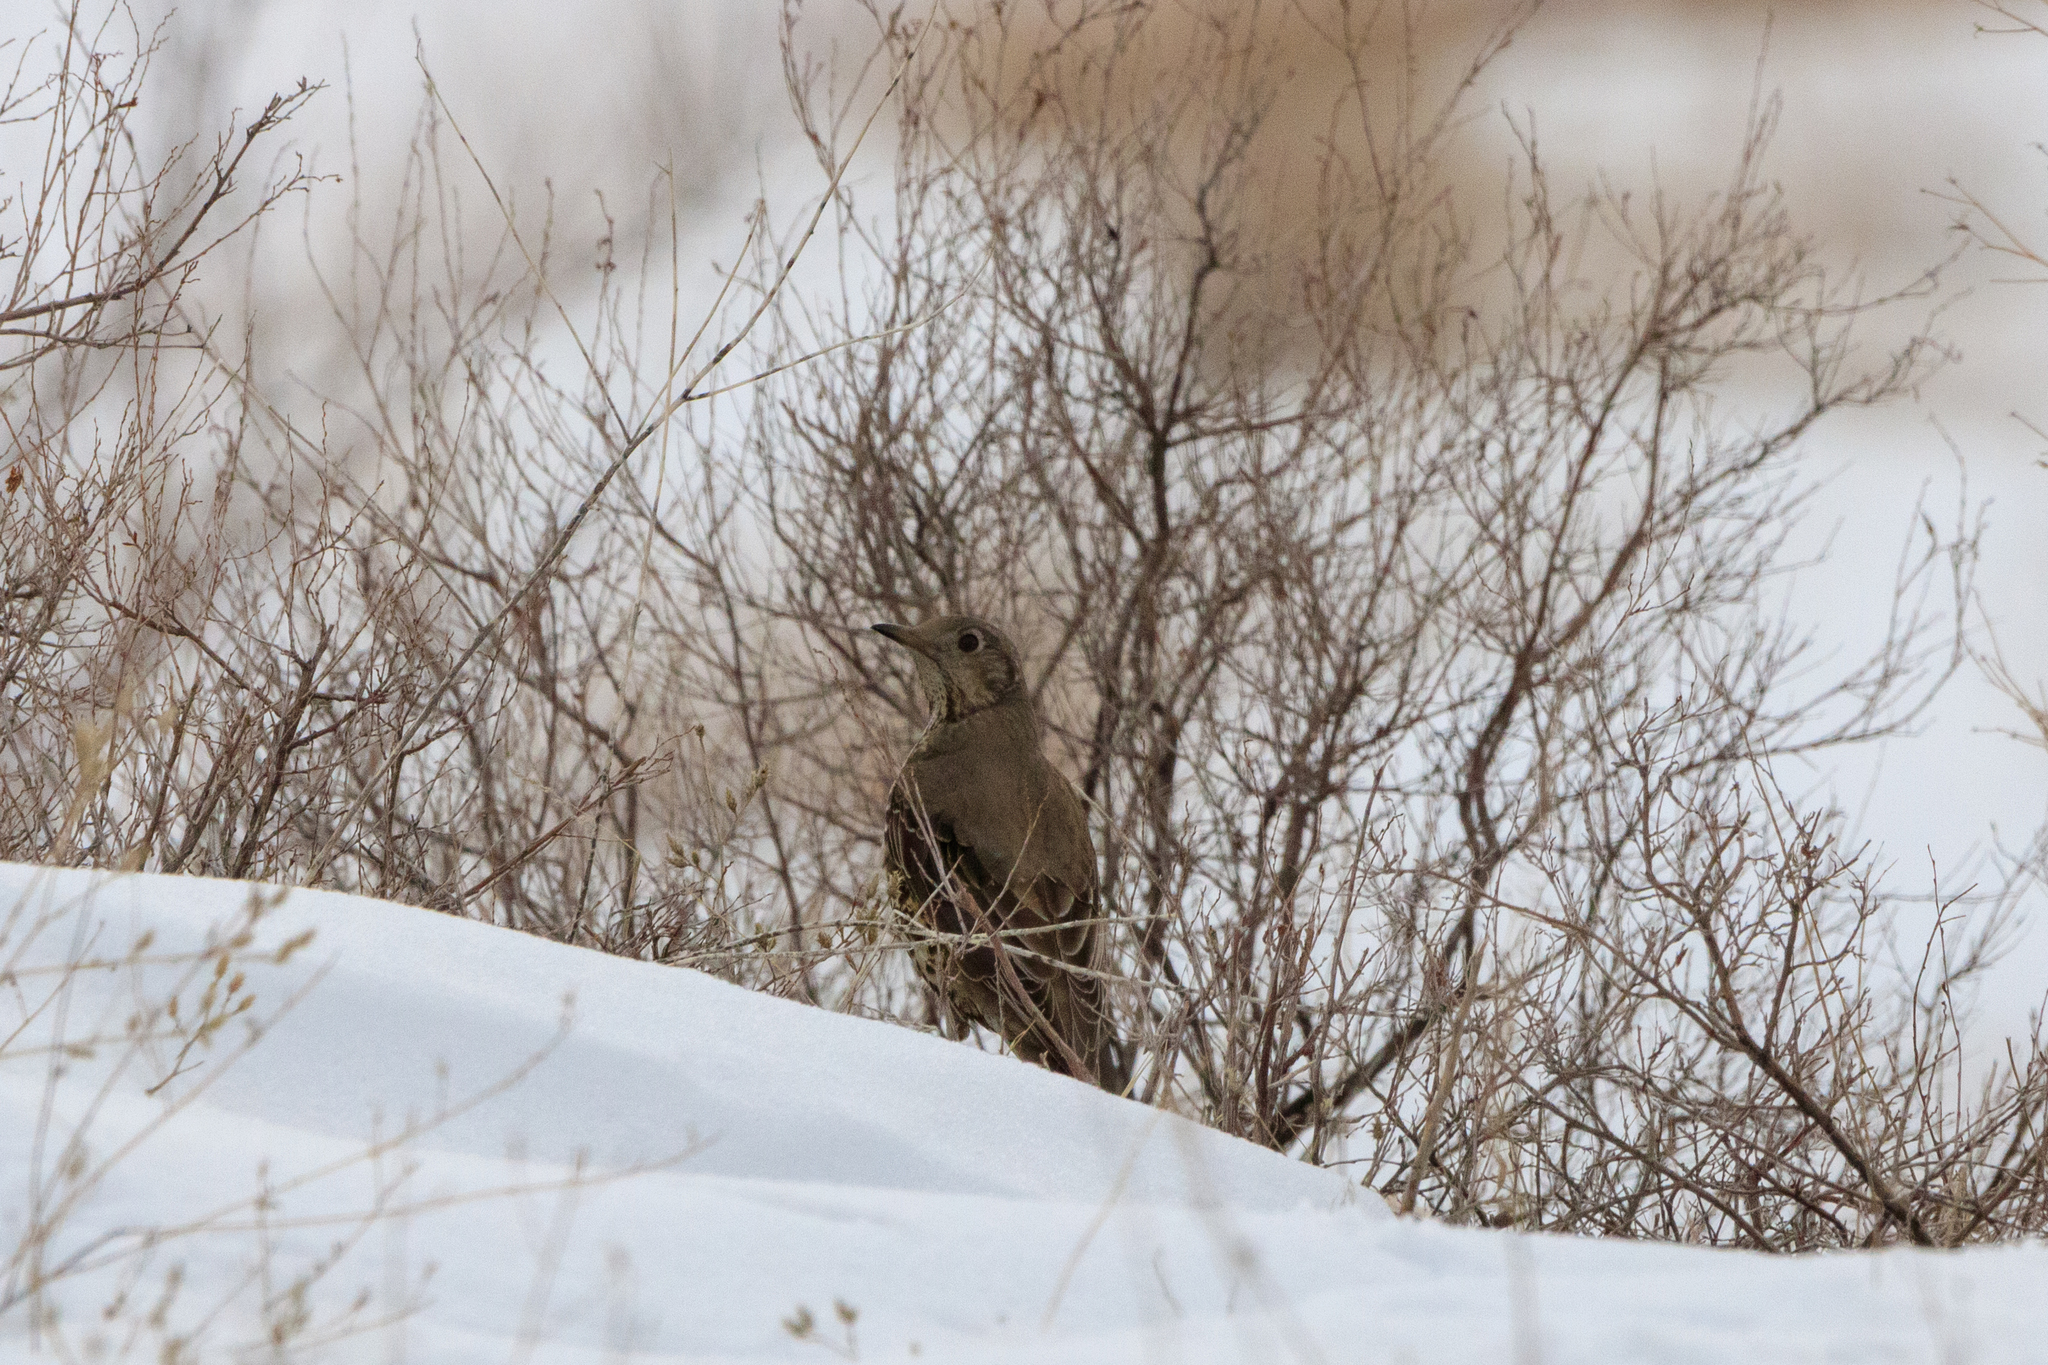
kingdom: Animalia
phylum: Chordata
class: Aves
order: Passeriformes
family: Turdidae
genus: Turdus
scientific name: Turdus viscivorus
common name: Mistle thrush
